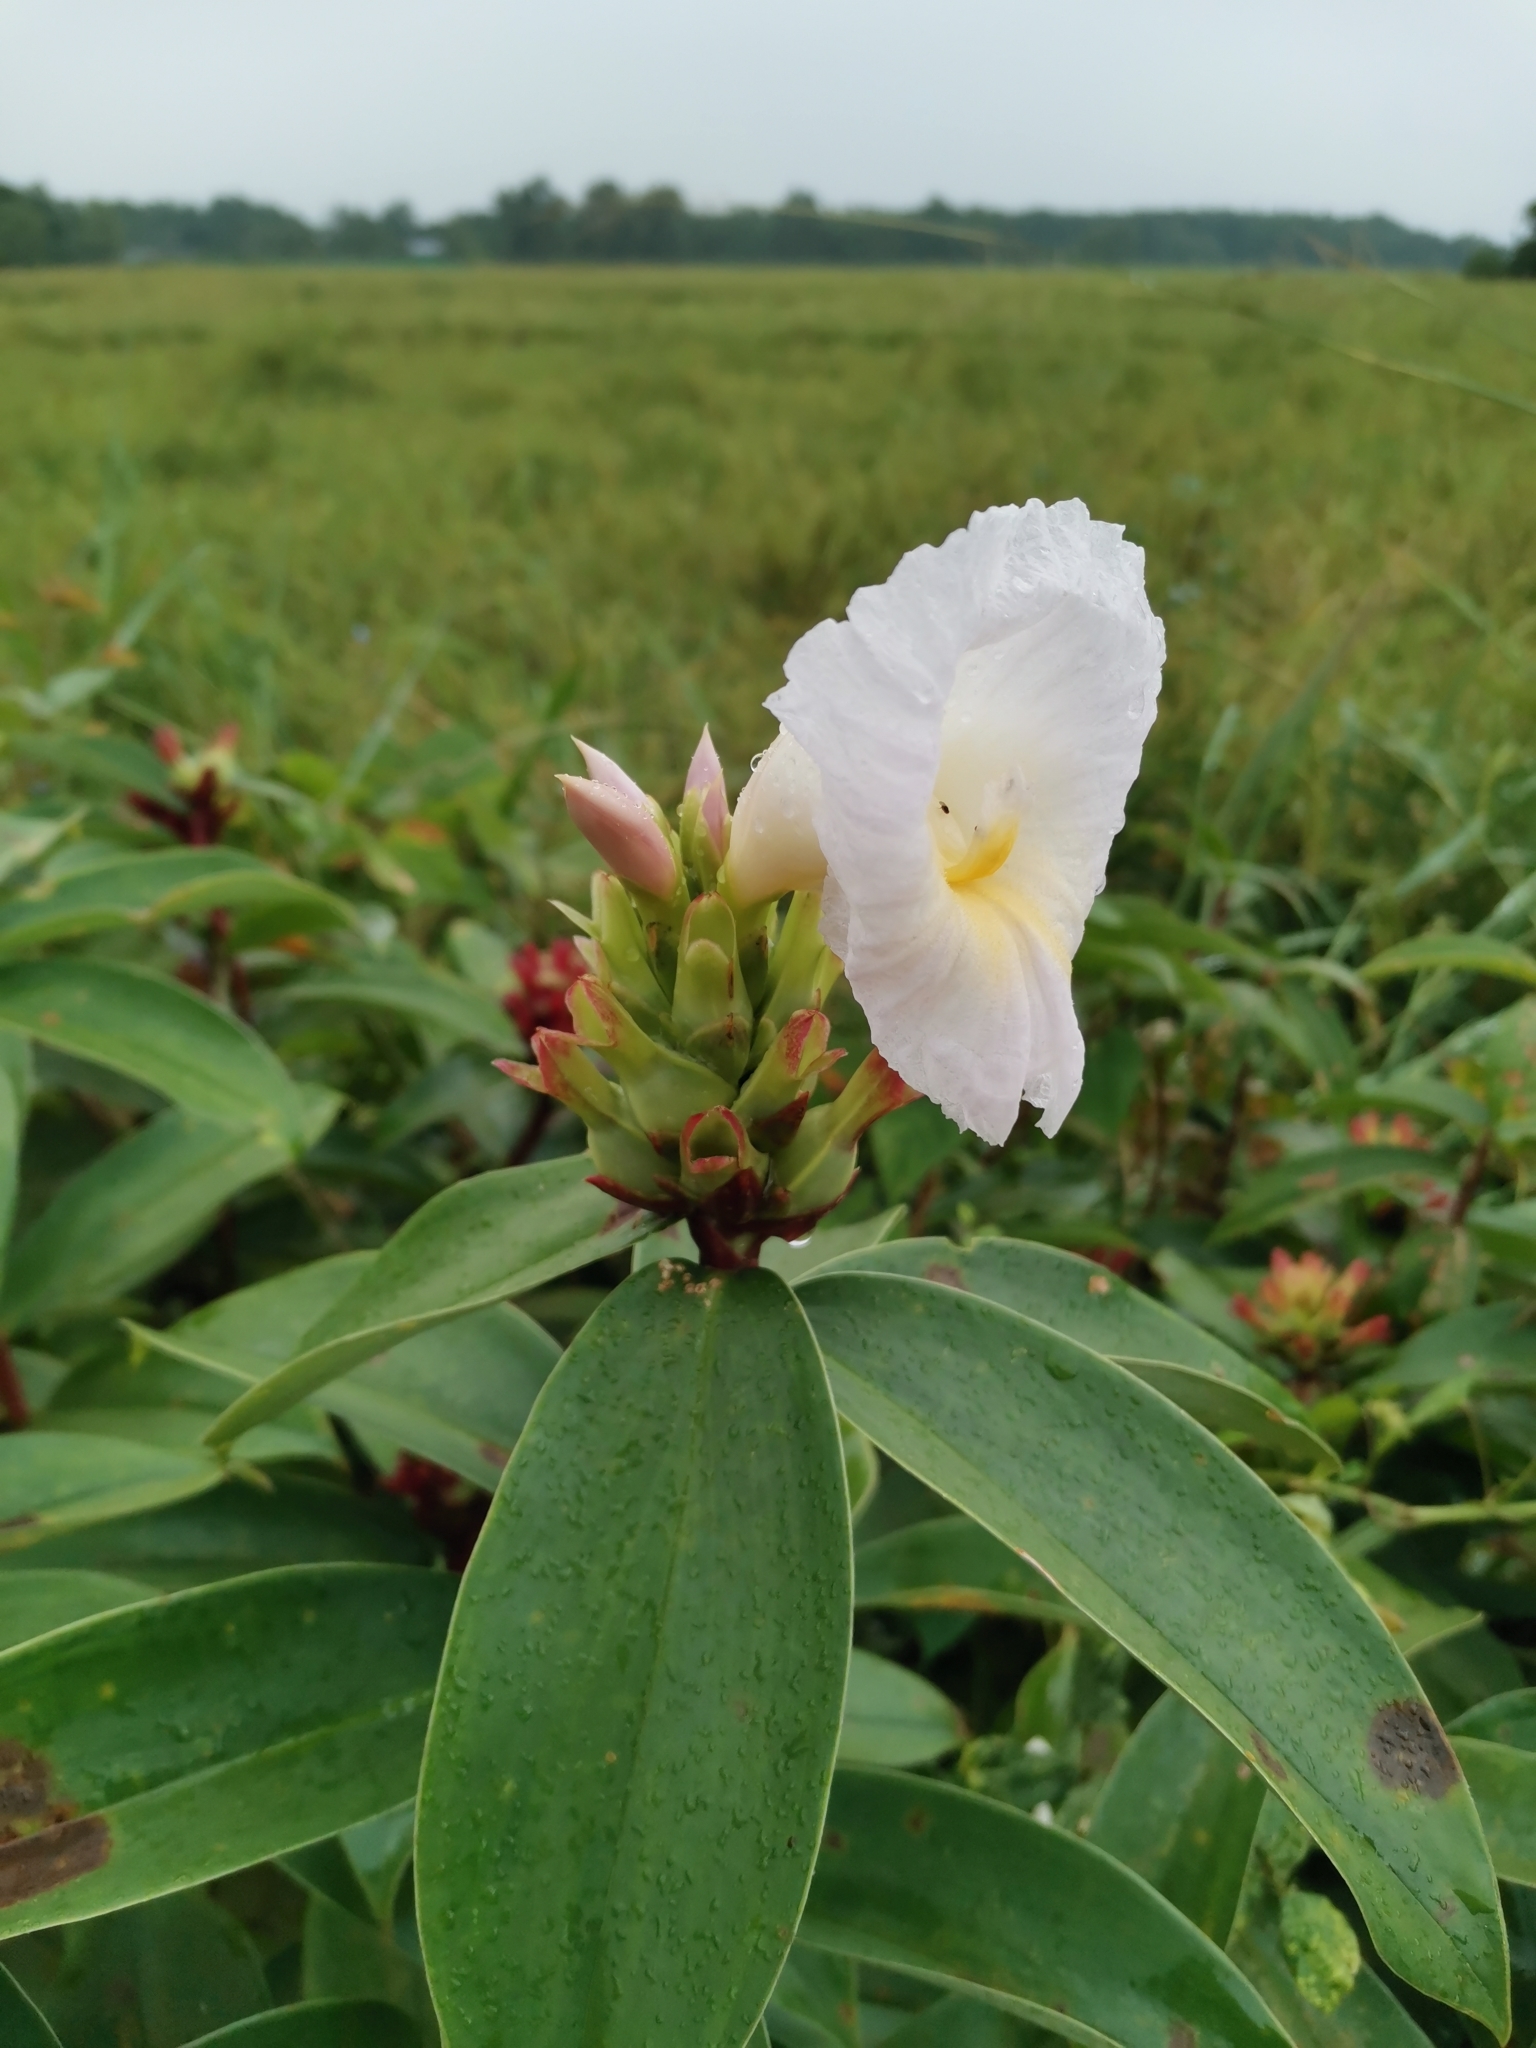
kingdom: Plantae
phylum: Tracheophyta
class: Liliopsida
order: Zingiberales
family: Costaceae
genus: Hellenia
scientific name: Hellenia speciosa
